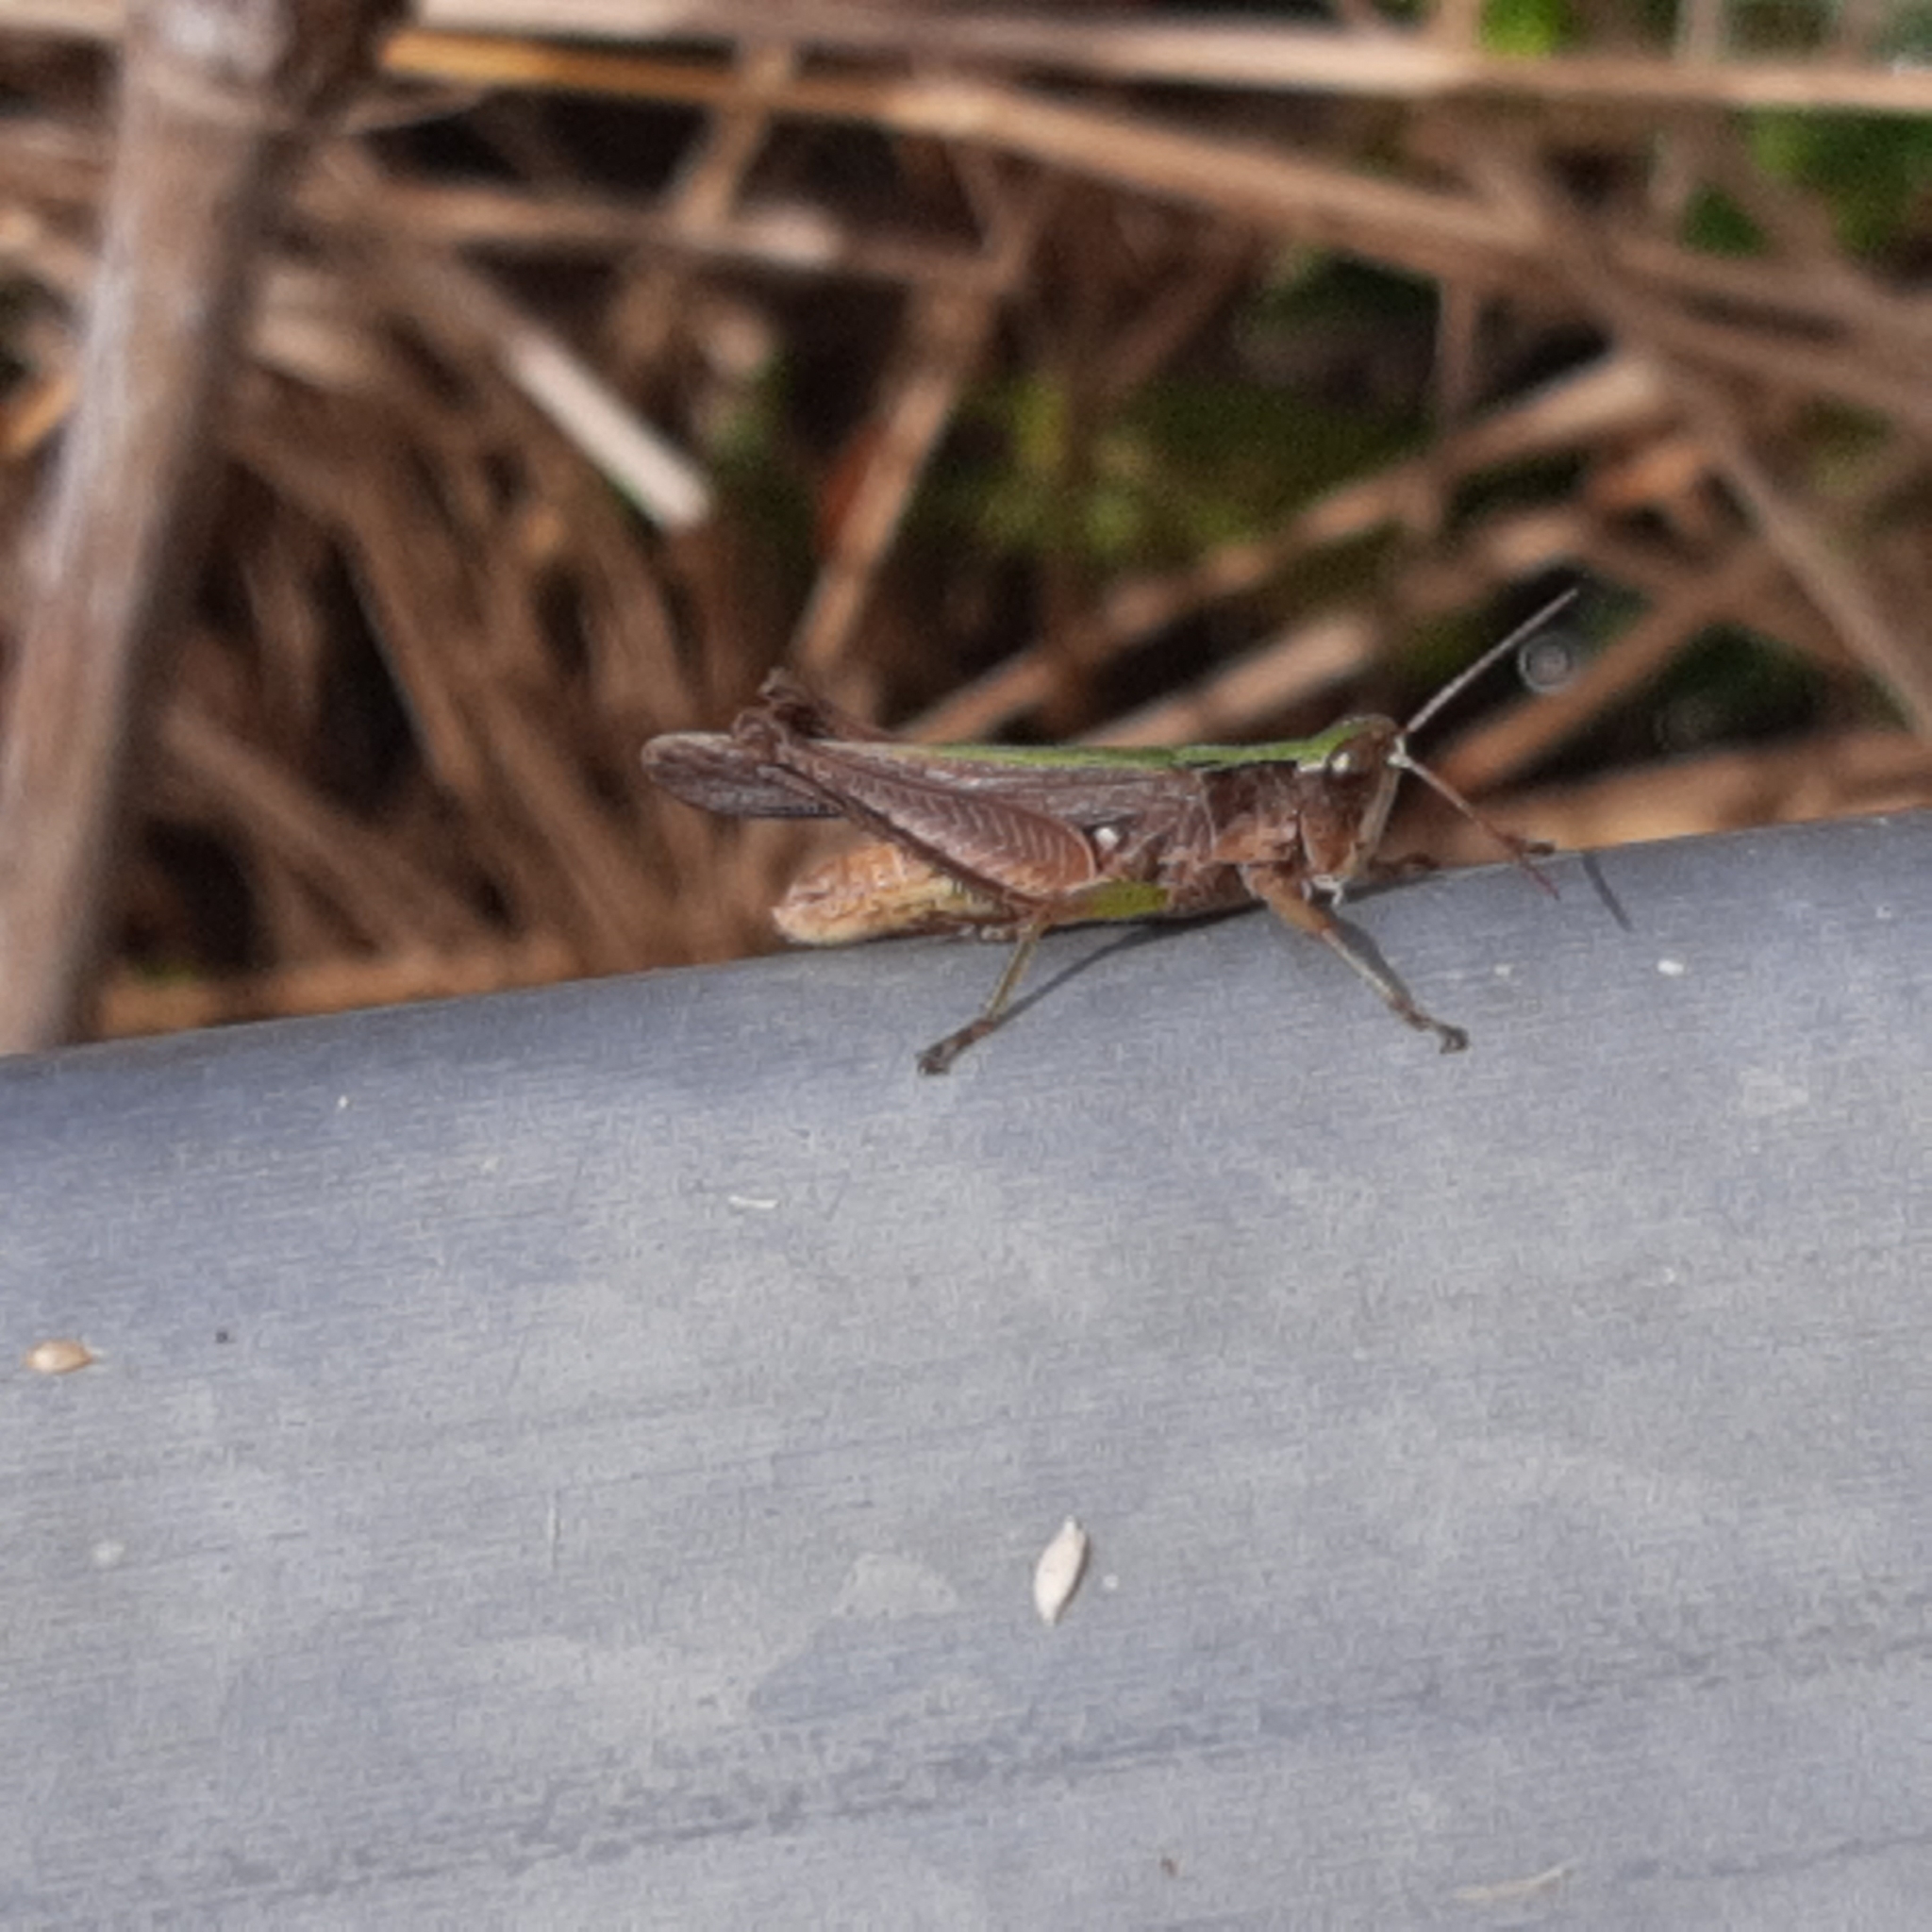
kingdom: Animalia
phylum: Arthropoda
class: Insecta
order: Orthoptera
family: Acrididae
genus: Orphulella
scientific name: Orphulella punctata
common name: Slant-faced grasshopper
